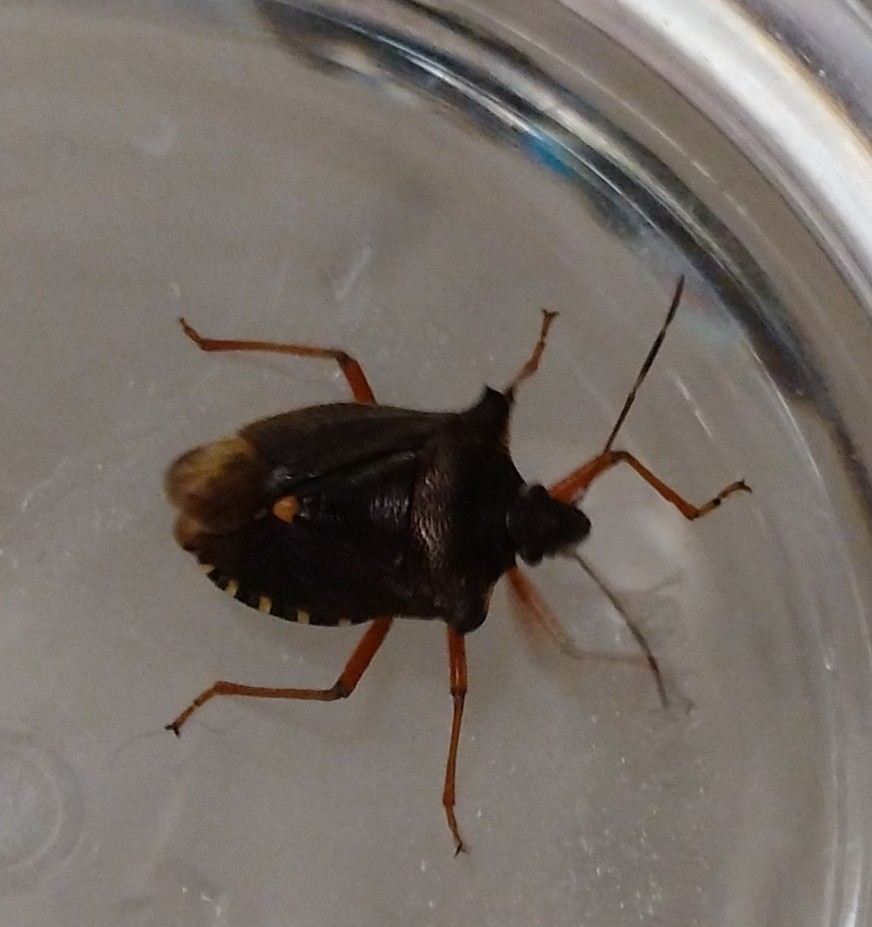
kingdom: Animalia
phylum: Arthropoda
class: Insecta
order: Hemiptera
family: Pentatomidae
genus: Pentatoma
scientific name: Pentatoma rufipes
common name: Forest bug
